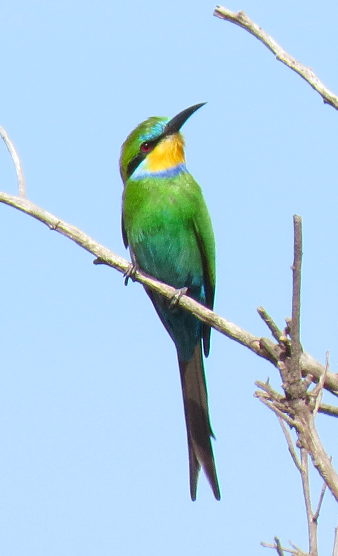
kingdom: Animalia
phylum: Chordata
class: Aves
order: Coraciiformes
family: Meropidae
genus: Merops
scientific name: Merops hirundineus
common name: Swallow-tailed bee-eater
